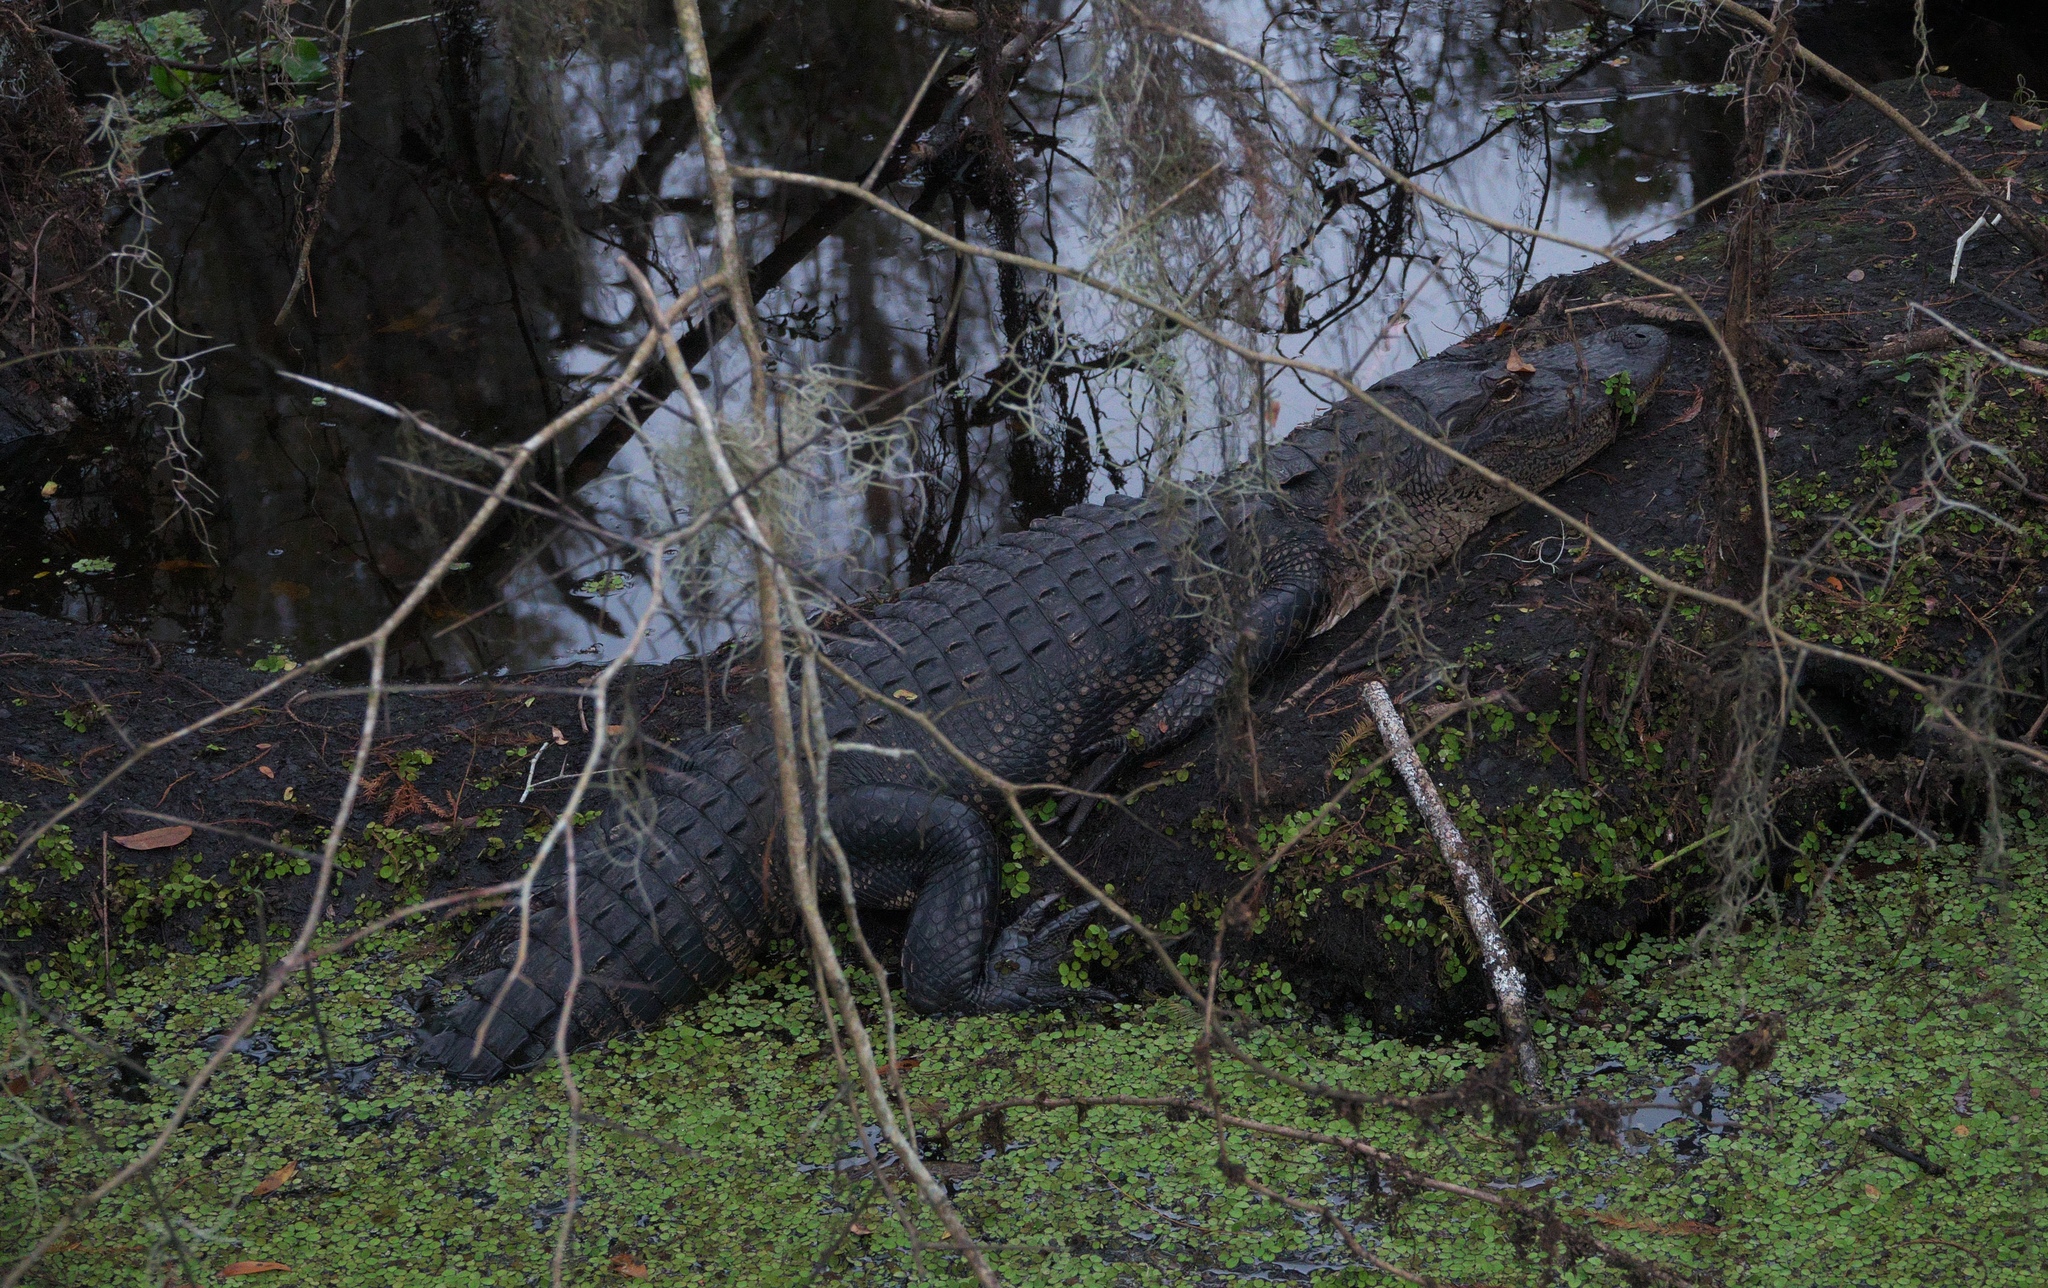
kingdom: Animalia
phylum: Chordata
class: Crocodylia
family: Alligatoridae
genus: Alligator
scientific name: Alligator mississippiensis
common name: American alligator
